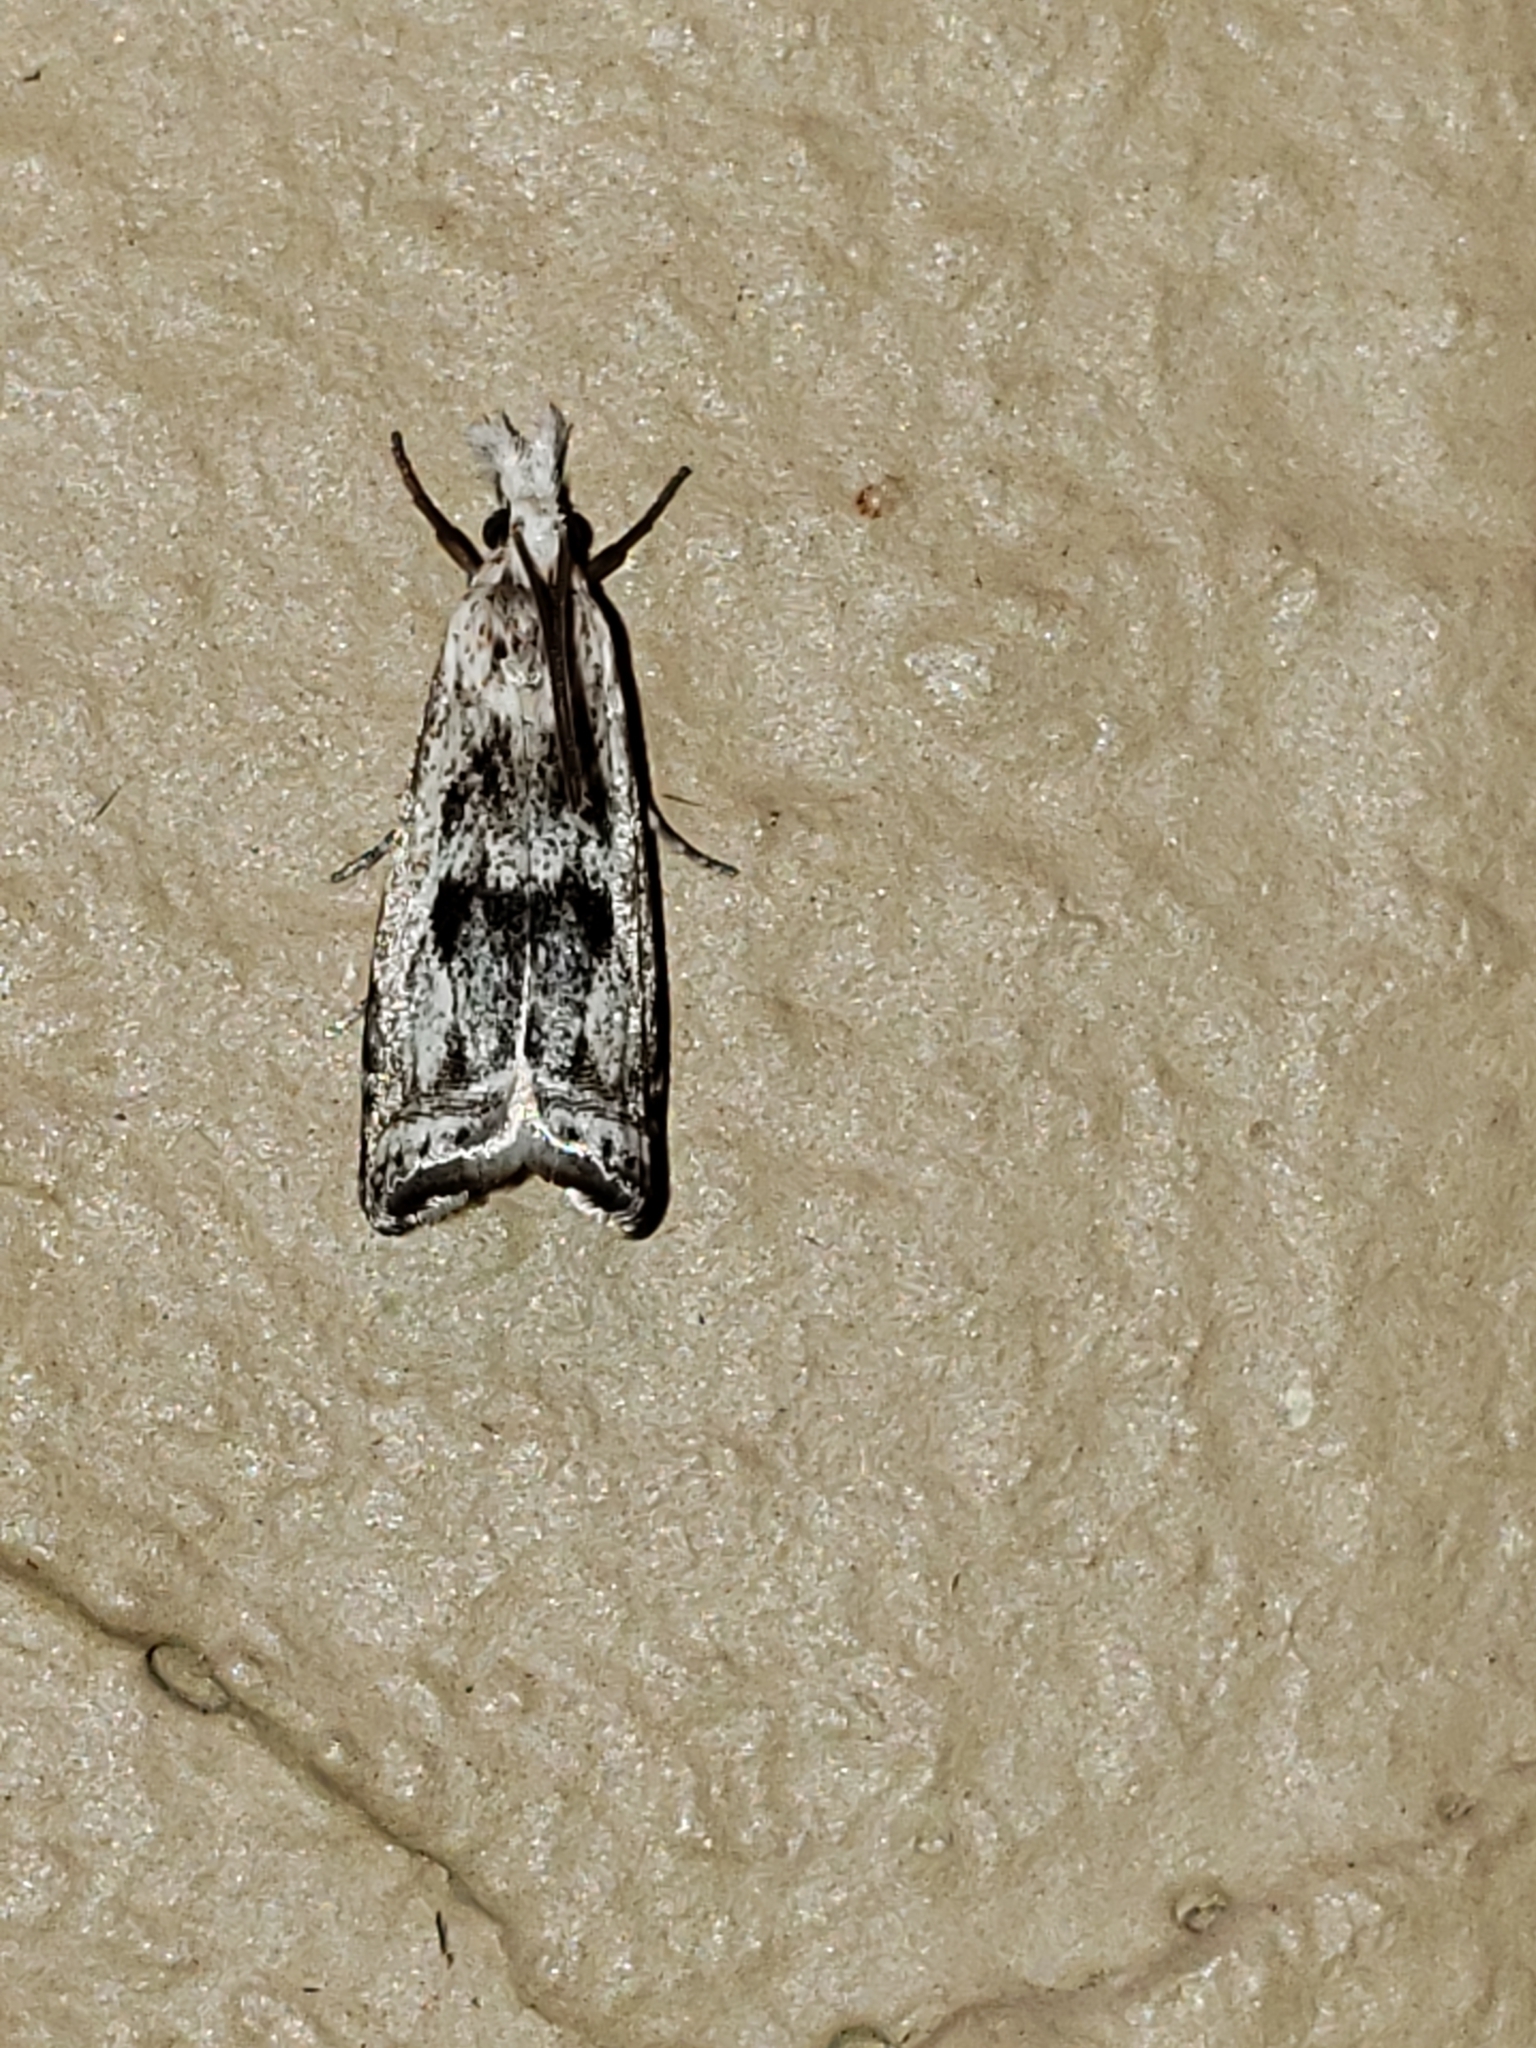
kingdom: Animalia
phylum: Arthropoda
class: Insecta
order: Lepidoptera
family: Crambidae
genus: Microcrambus
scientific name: Microcrambus elegans
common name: Elegant grass-veneer
